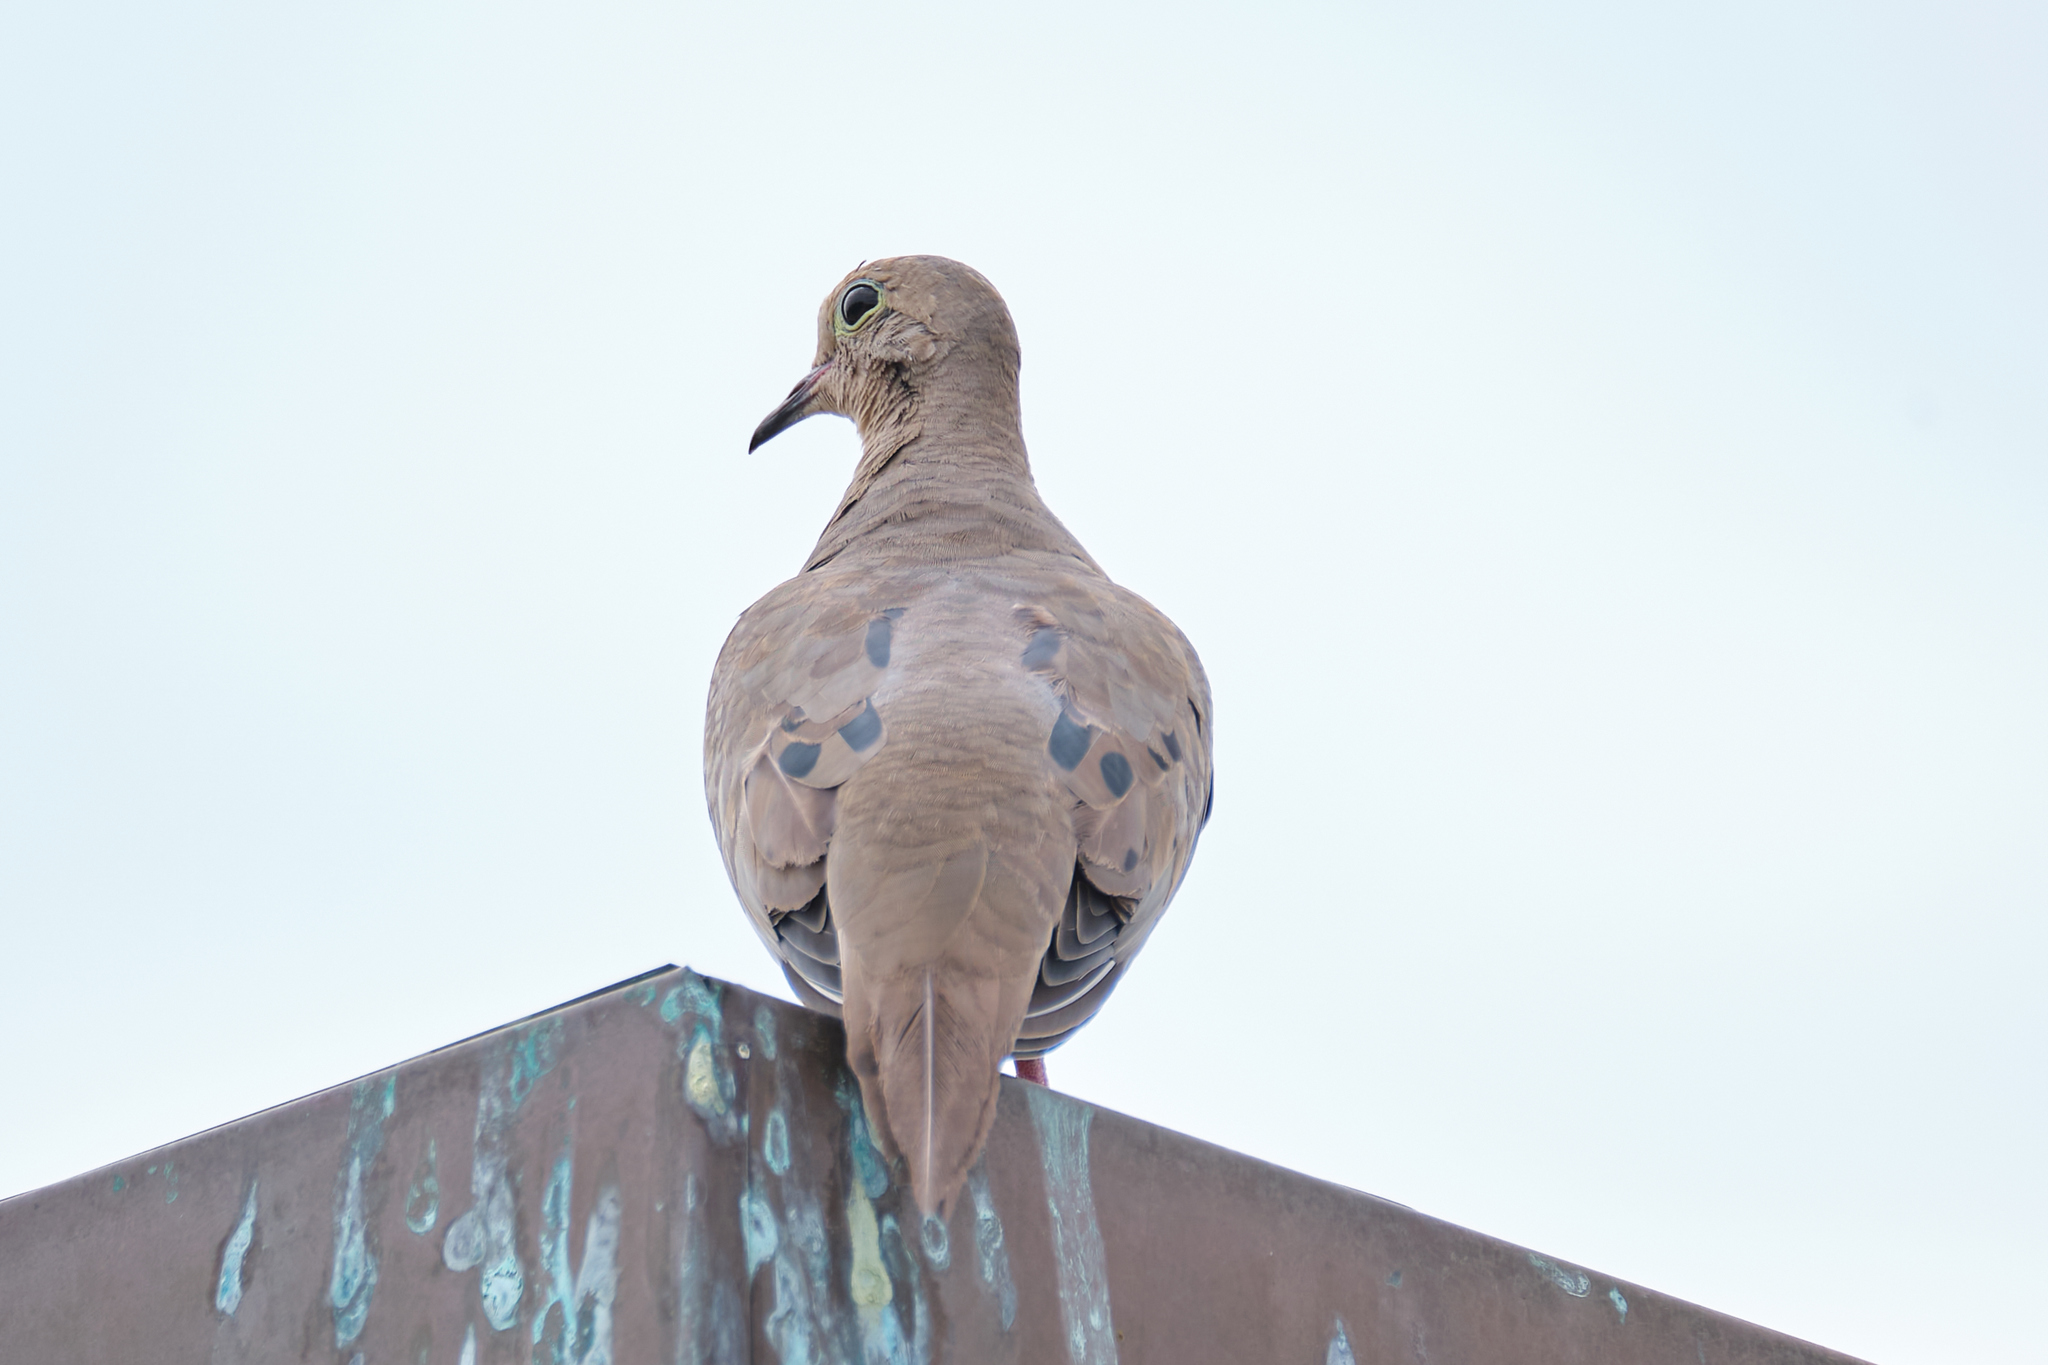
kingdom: Animalia
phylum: Chordata
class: Aves
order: Columbiformes
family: Columbidae
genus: Zenaida
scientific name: Zenaida macroura
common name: Mourning dove
